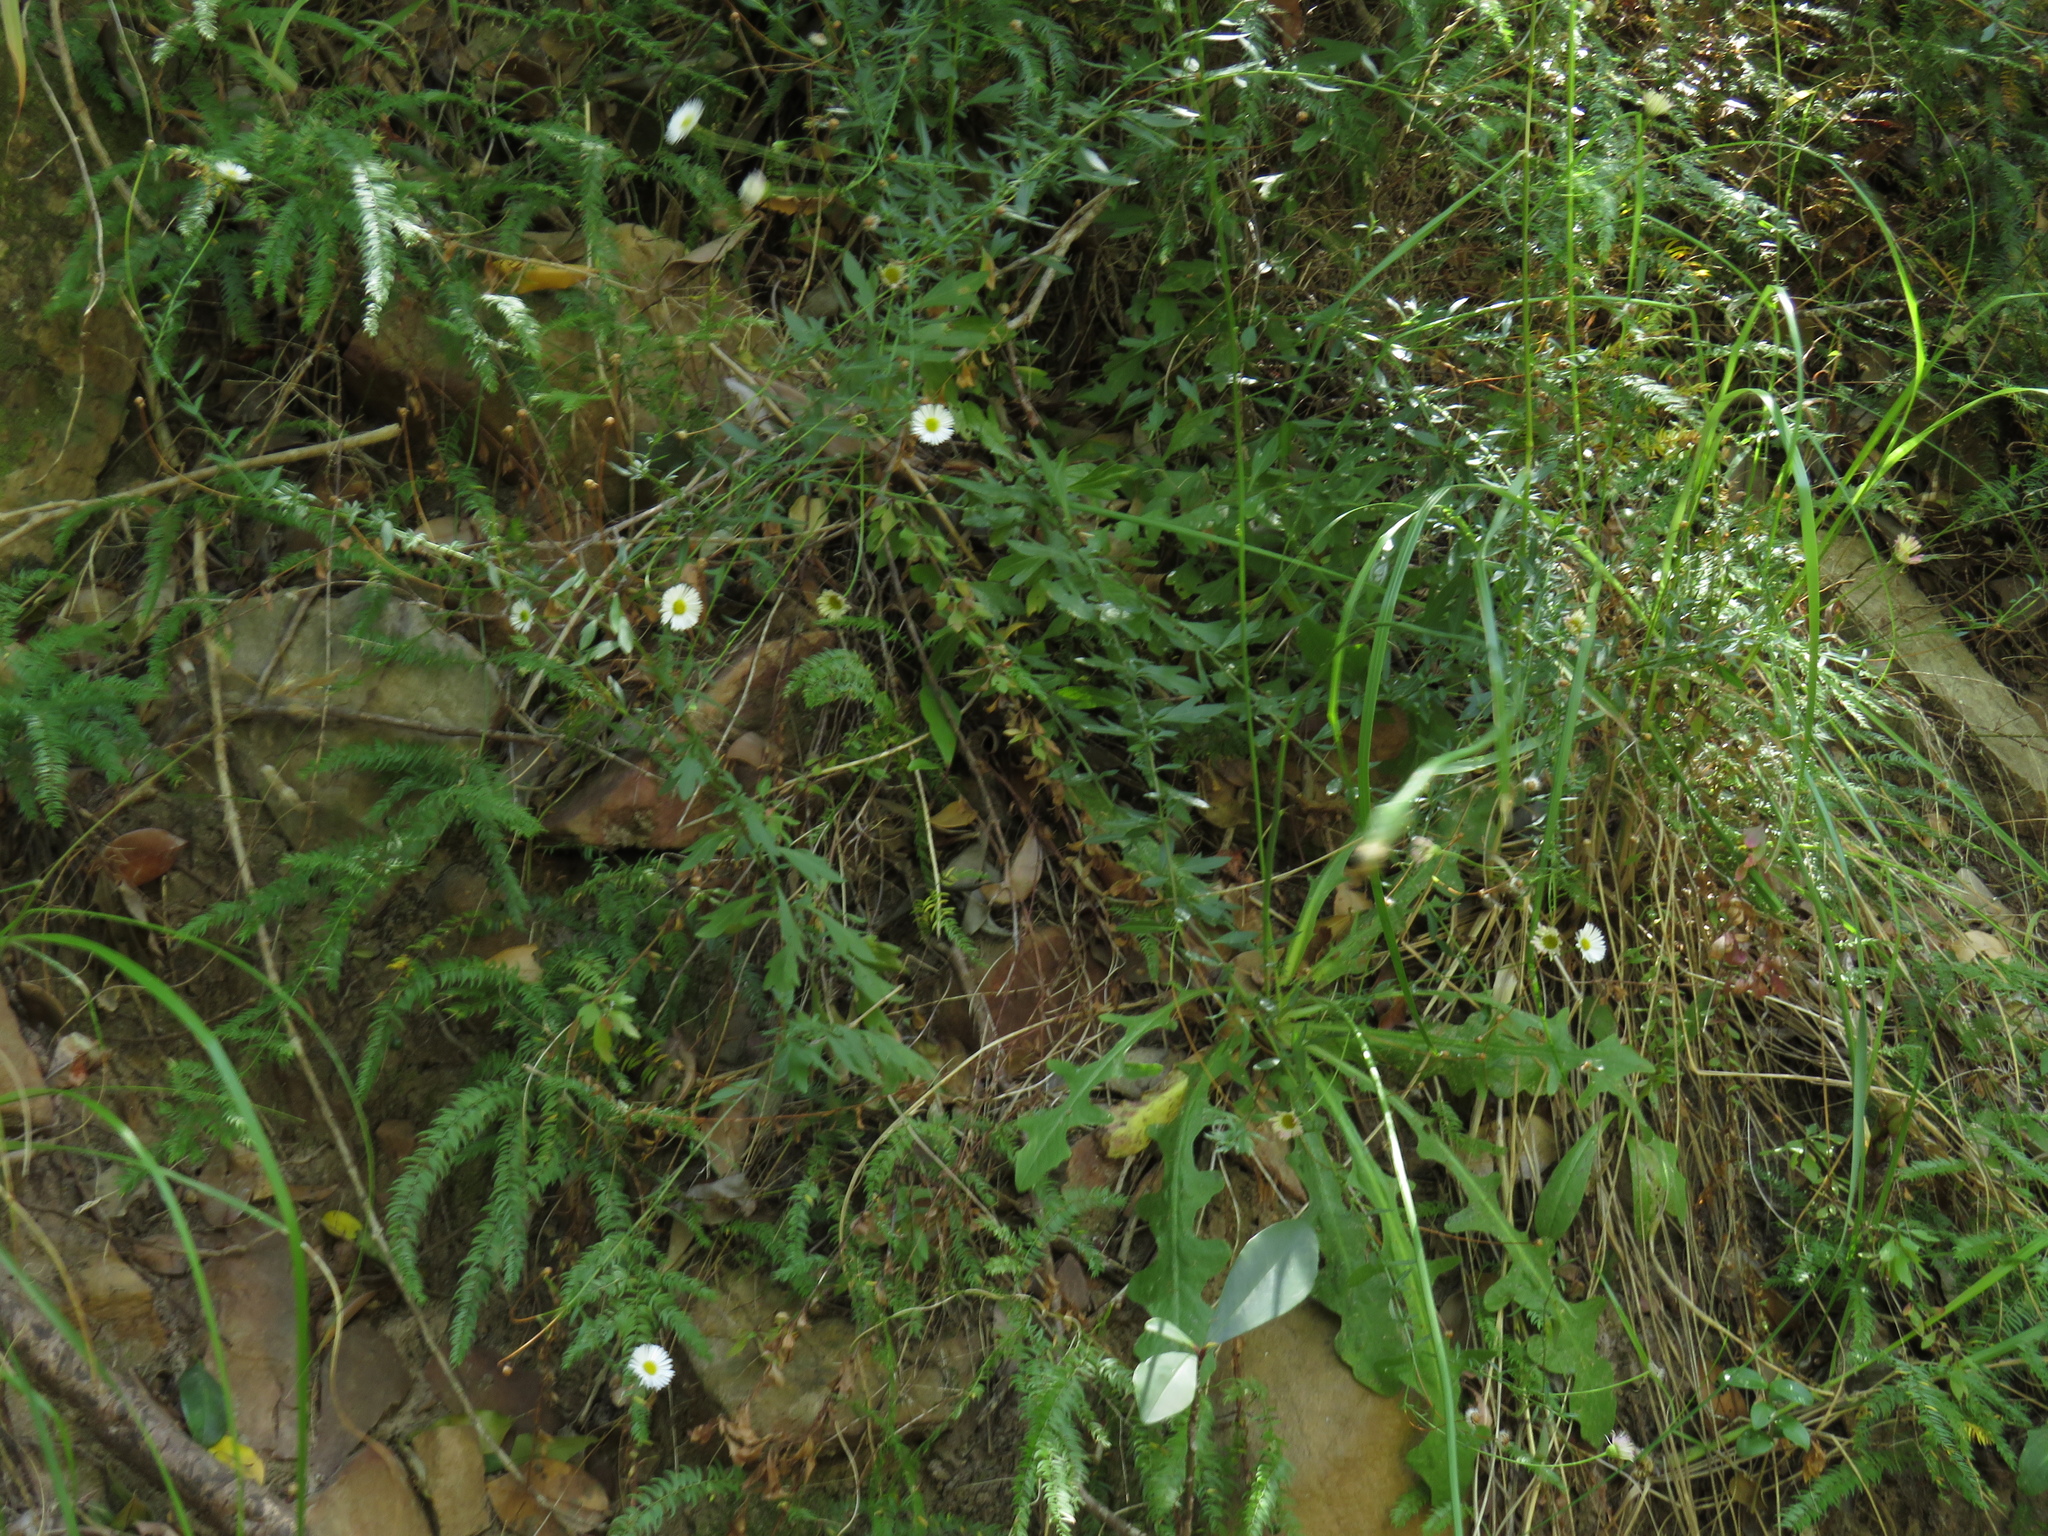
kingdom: Plantae
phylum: Tracheophyta
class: Magnoliopsida
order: Asterales
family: Asteraceae
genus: Erigeron
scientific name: Erigeron karvinskianus
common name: Mexican fleabane
